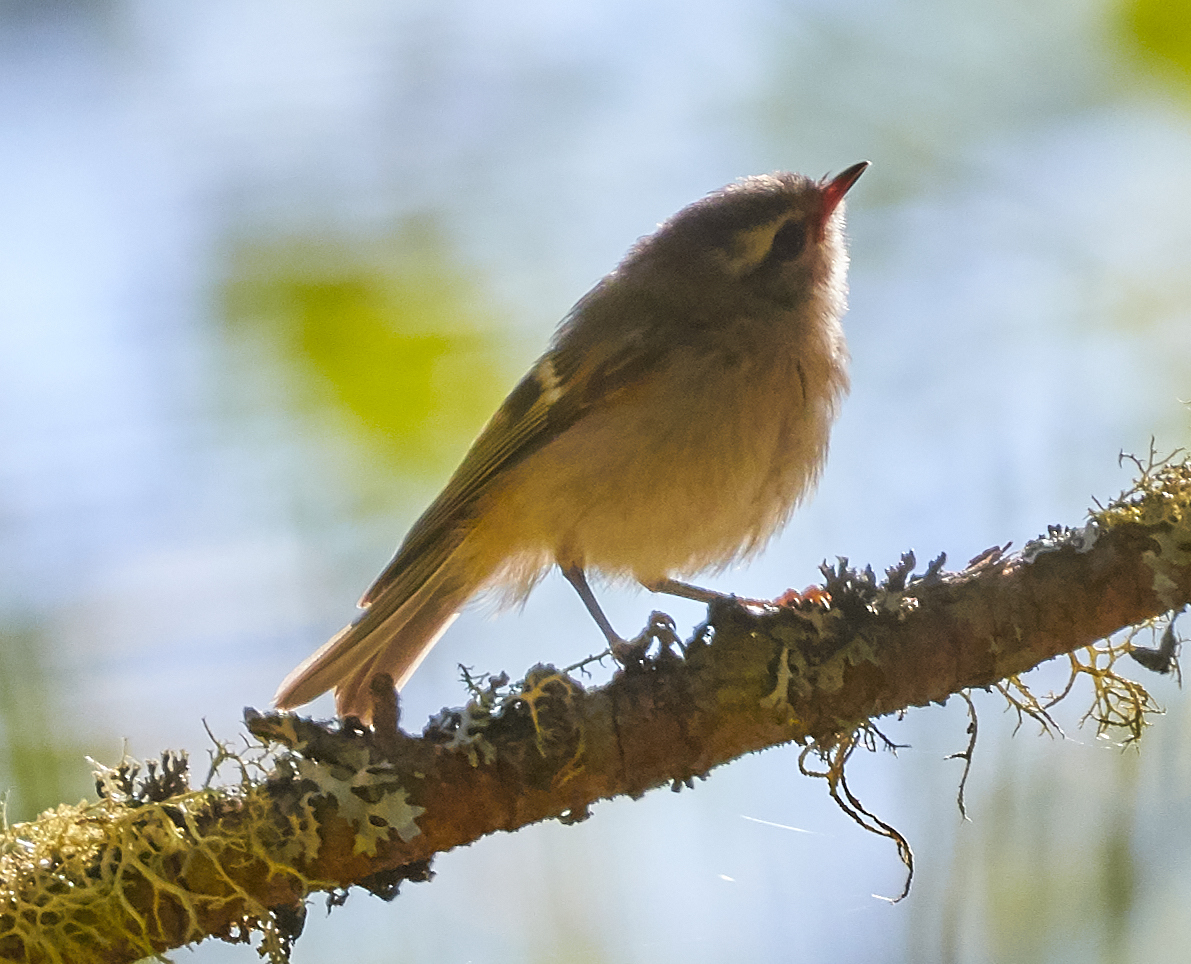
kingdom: Animalia
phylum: Chordata
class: Aves
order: Passeriformes
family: Regulidae
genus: Regulus
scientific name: Regulus satrapa
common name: Golden-crowned kinglet
